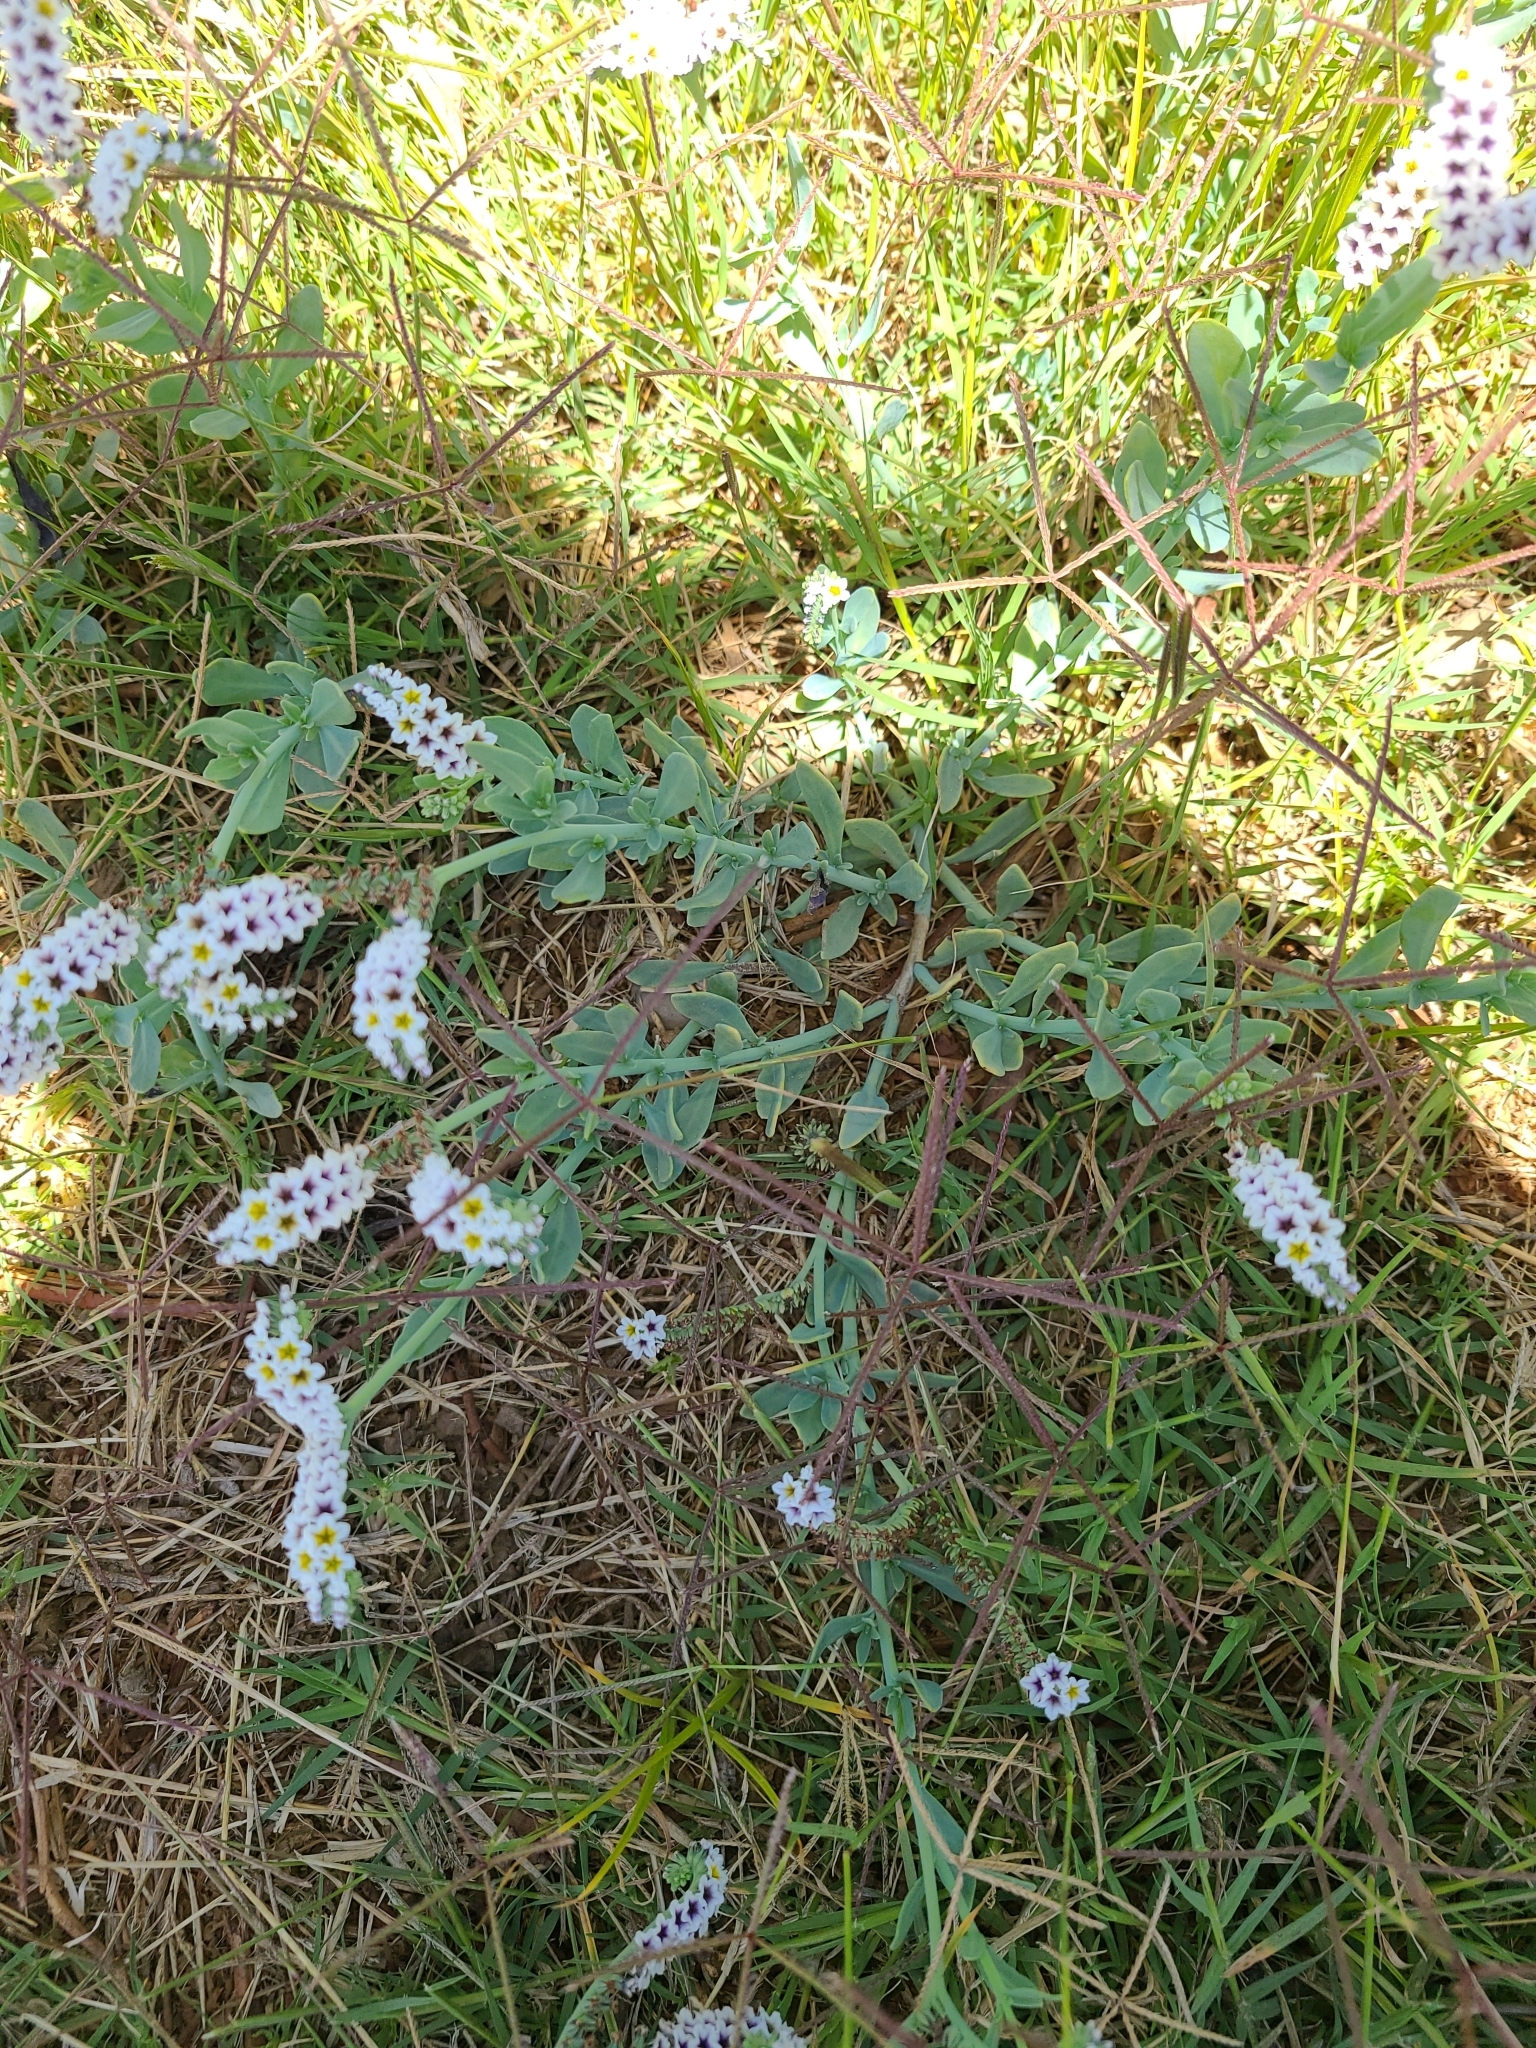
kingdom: Plantae
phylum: Tracheophyta
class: Magnoliopsida
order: Boraginales
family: Heliotropiaceae
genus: Heliotropium
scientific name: Heliotropium curassavicum
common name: Seaside heliotrope
